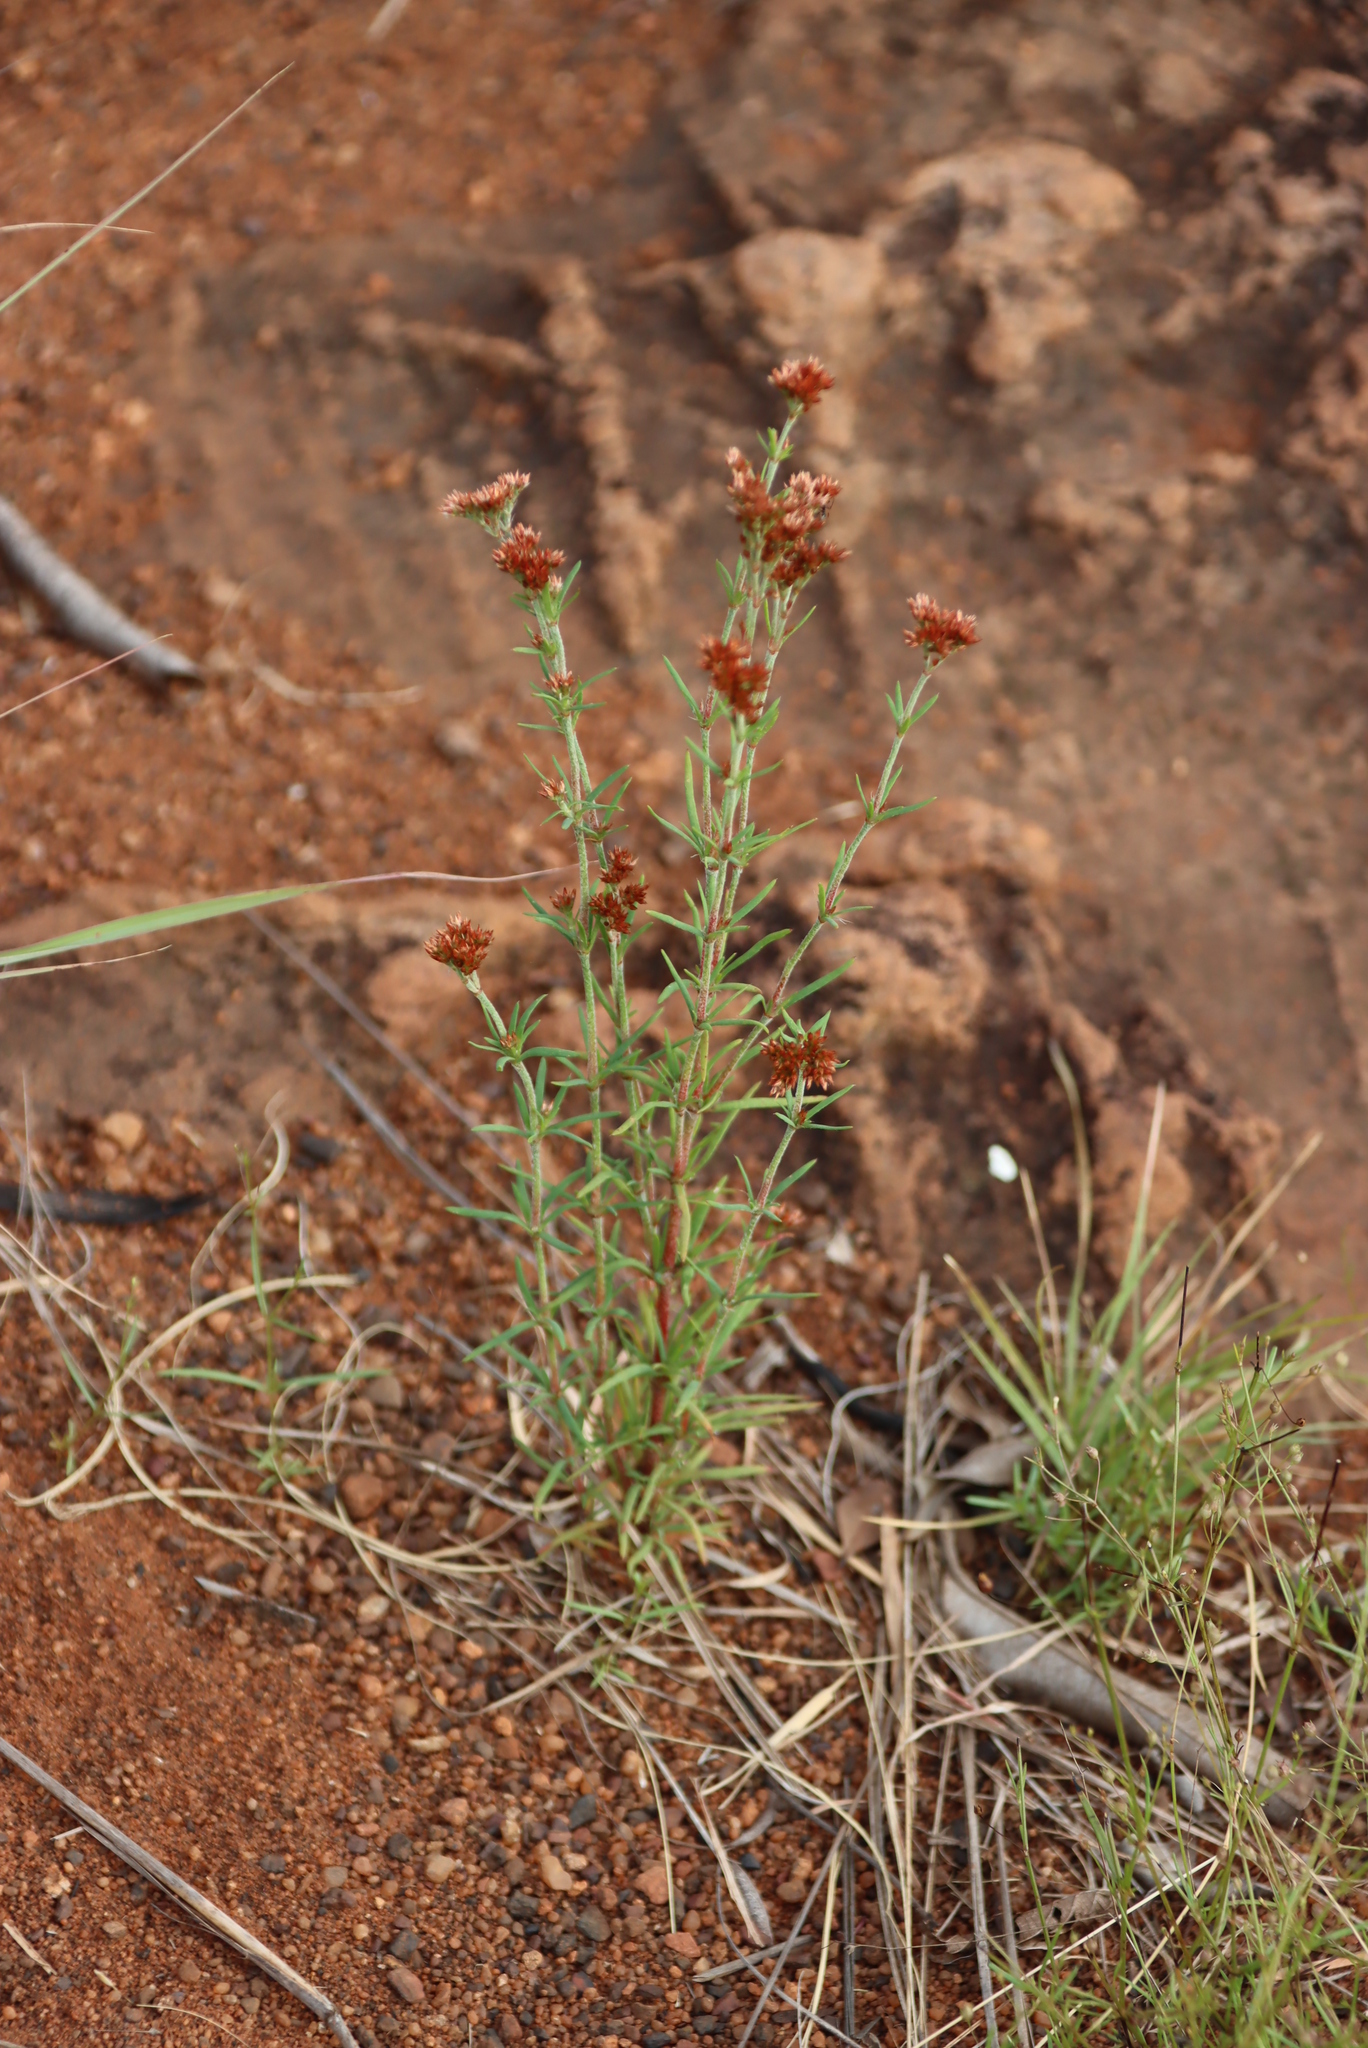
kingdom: Plantae
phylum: Tracheophyta
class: Magnoliopsida
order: Caryophyllales
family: Caryophyllaceae
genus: Polycarpaea
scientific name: Polycarpaea corymbosa
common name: Oldman's cap
